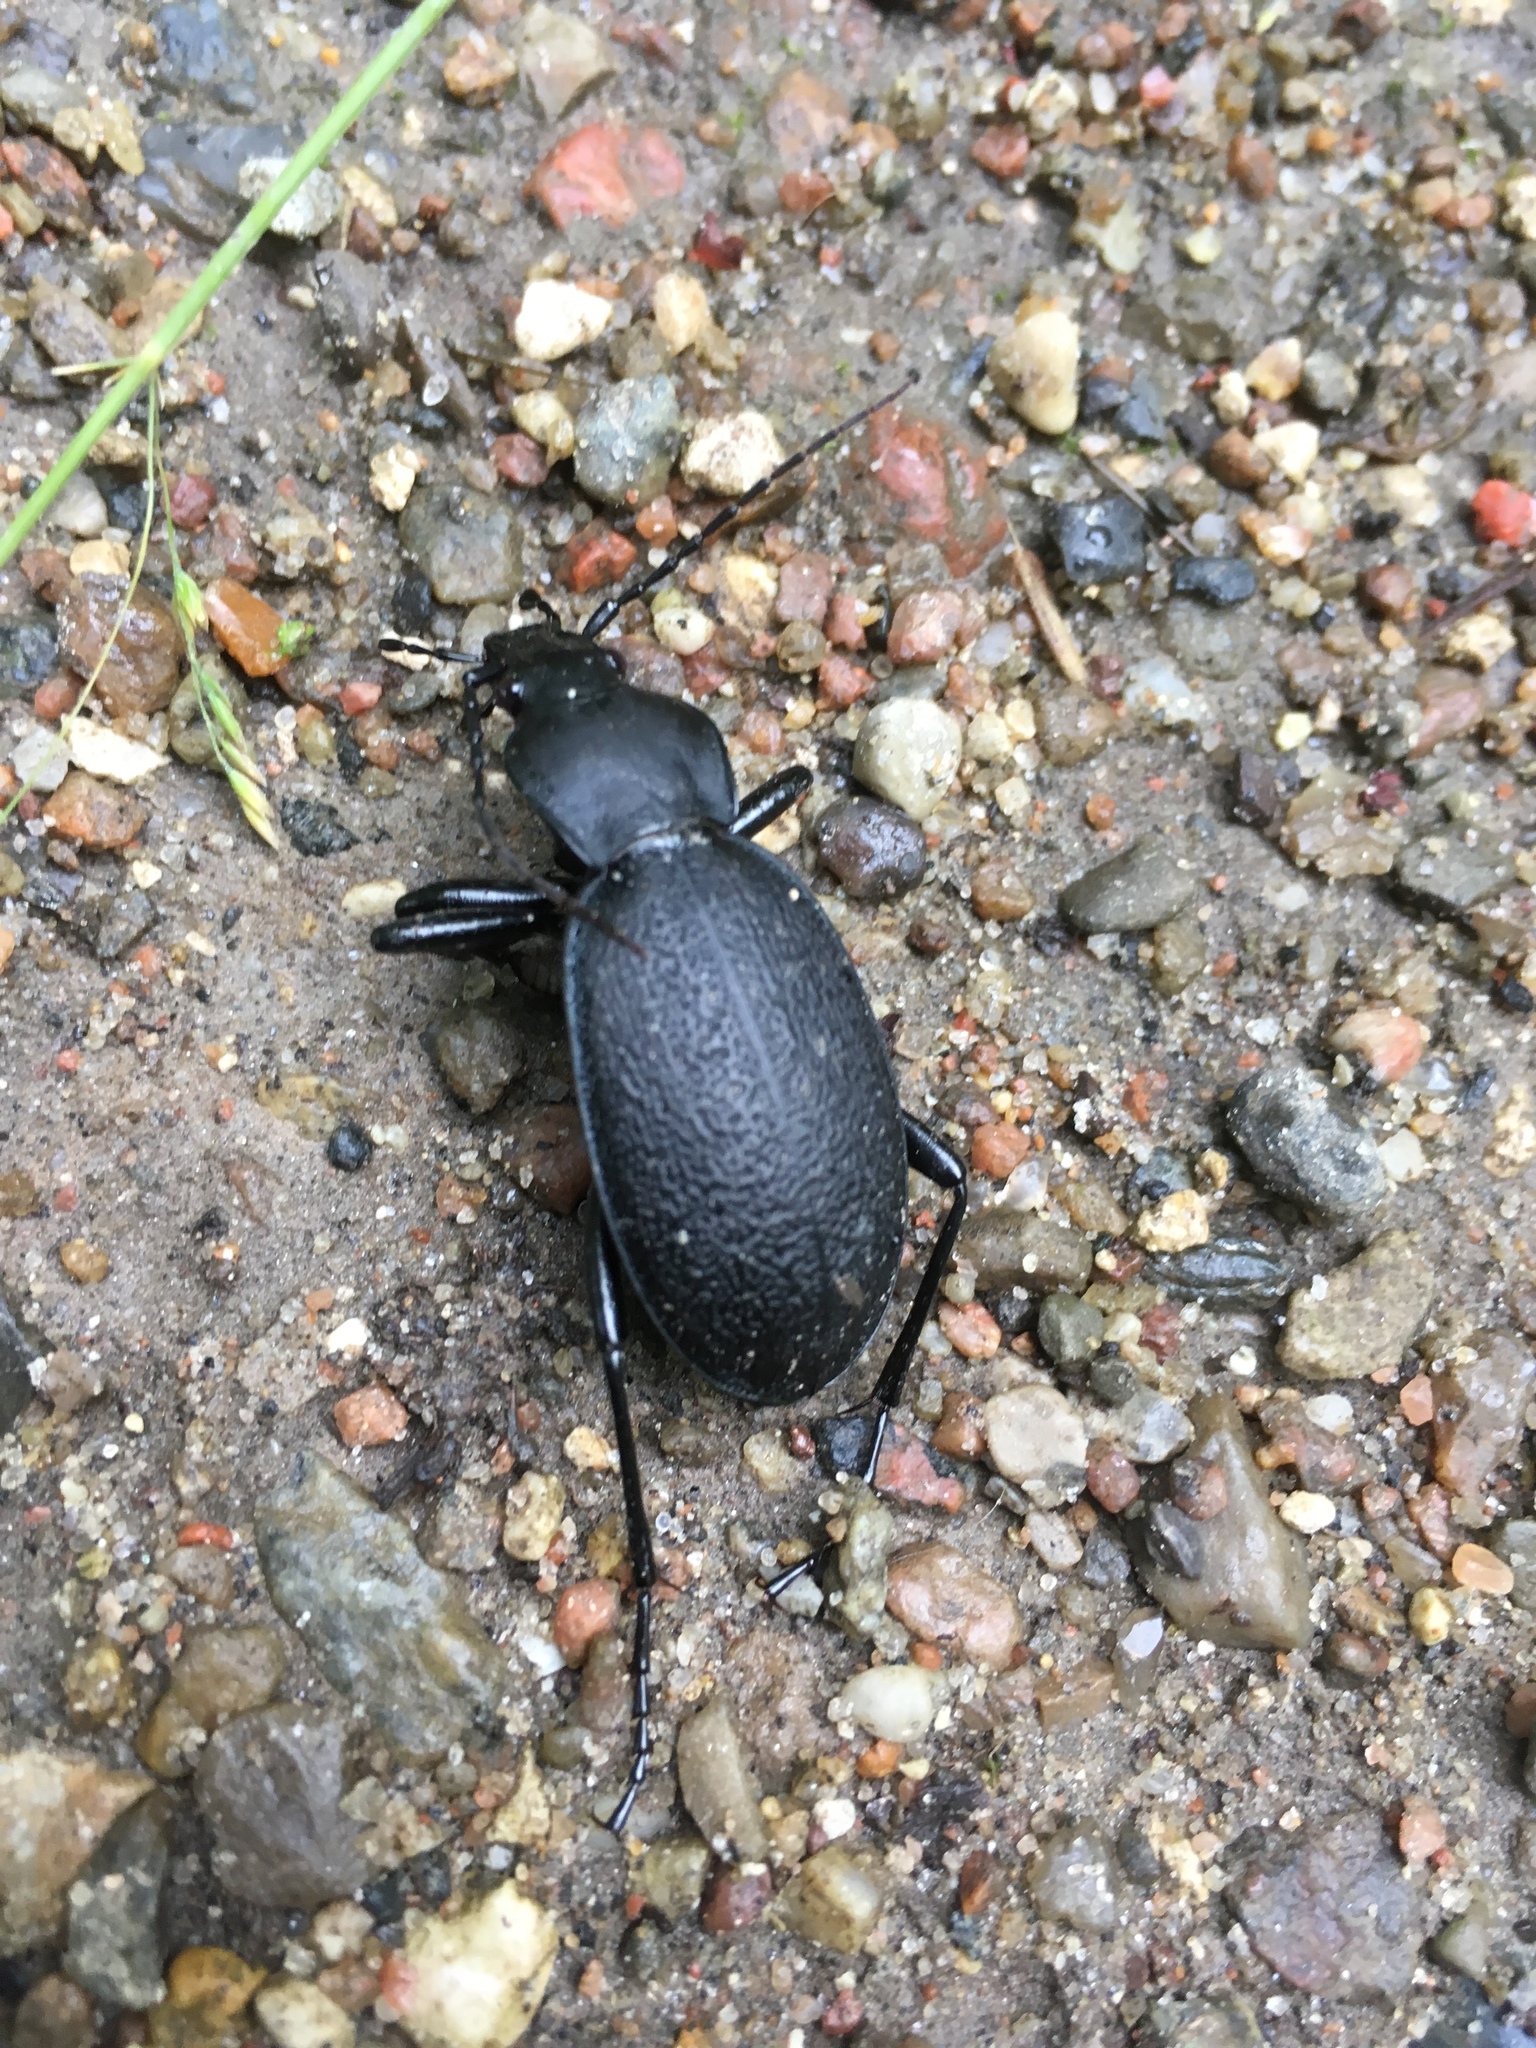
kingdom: Animalia
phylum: Arthropoda
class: Insecta
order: Coleoptera
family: Carabidae
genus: Carabus
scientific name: Carabus coriaceus
